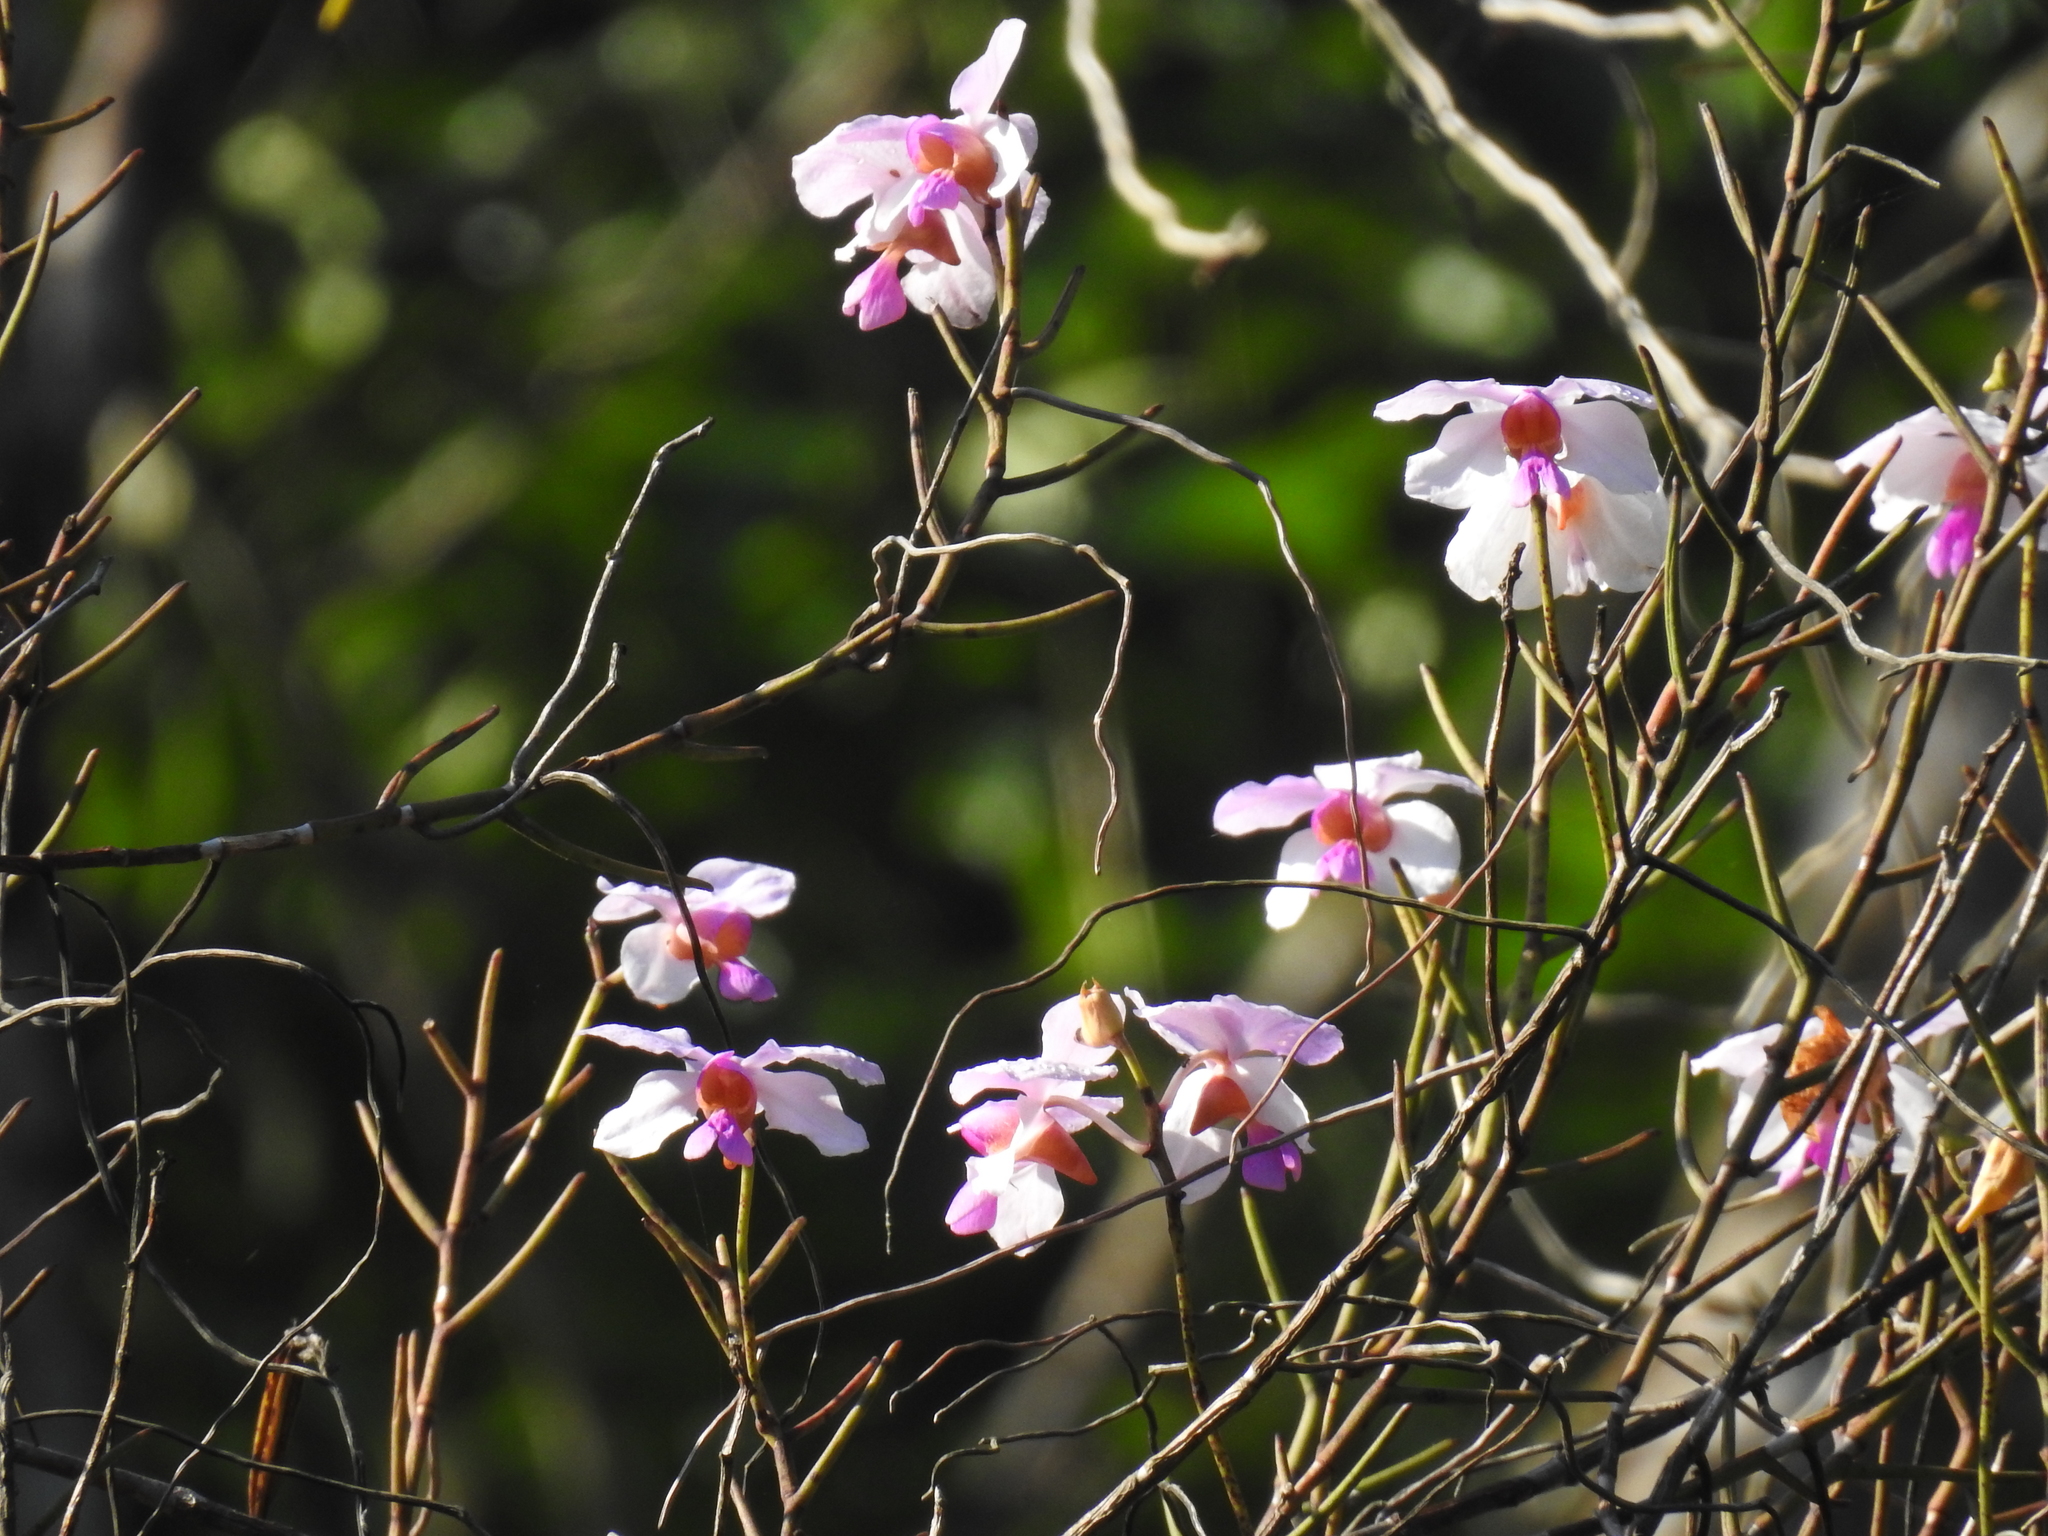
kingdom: Plantae
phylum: Tracheophyta
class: Liliopsida
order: Asparagales
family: Orchidaceae
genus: Papilionanthe
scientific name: Papilionanthe teres
